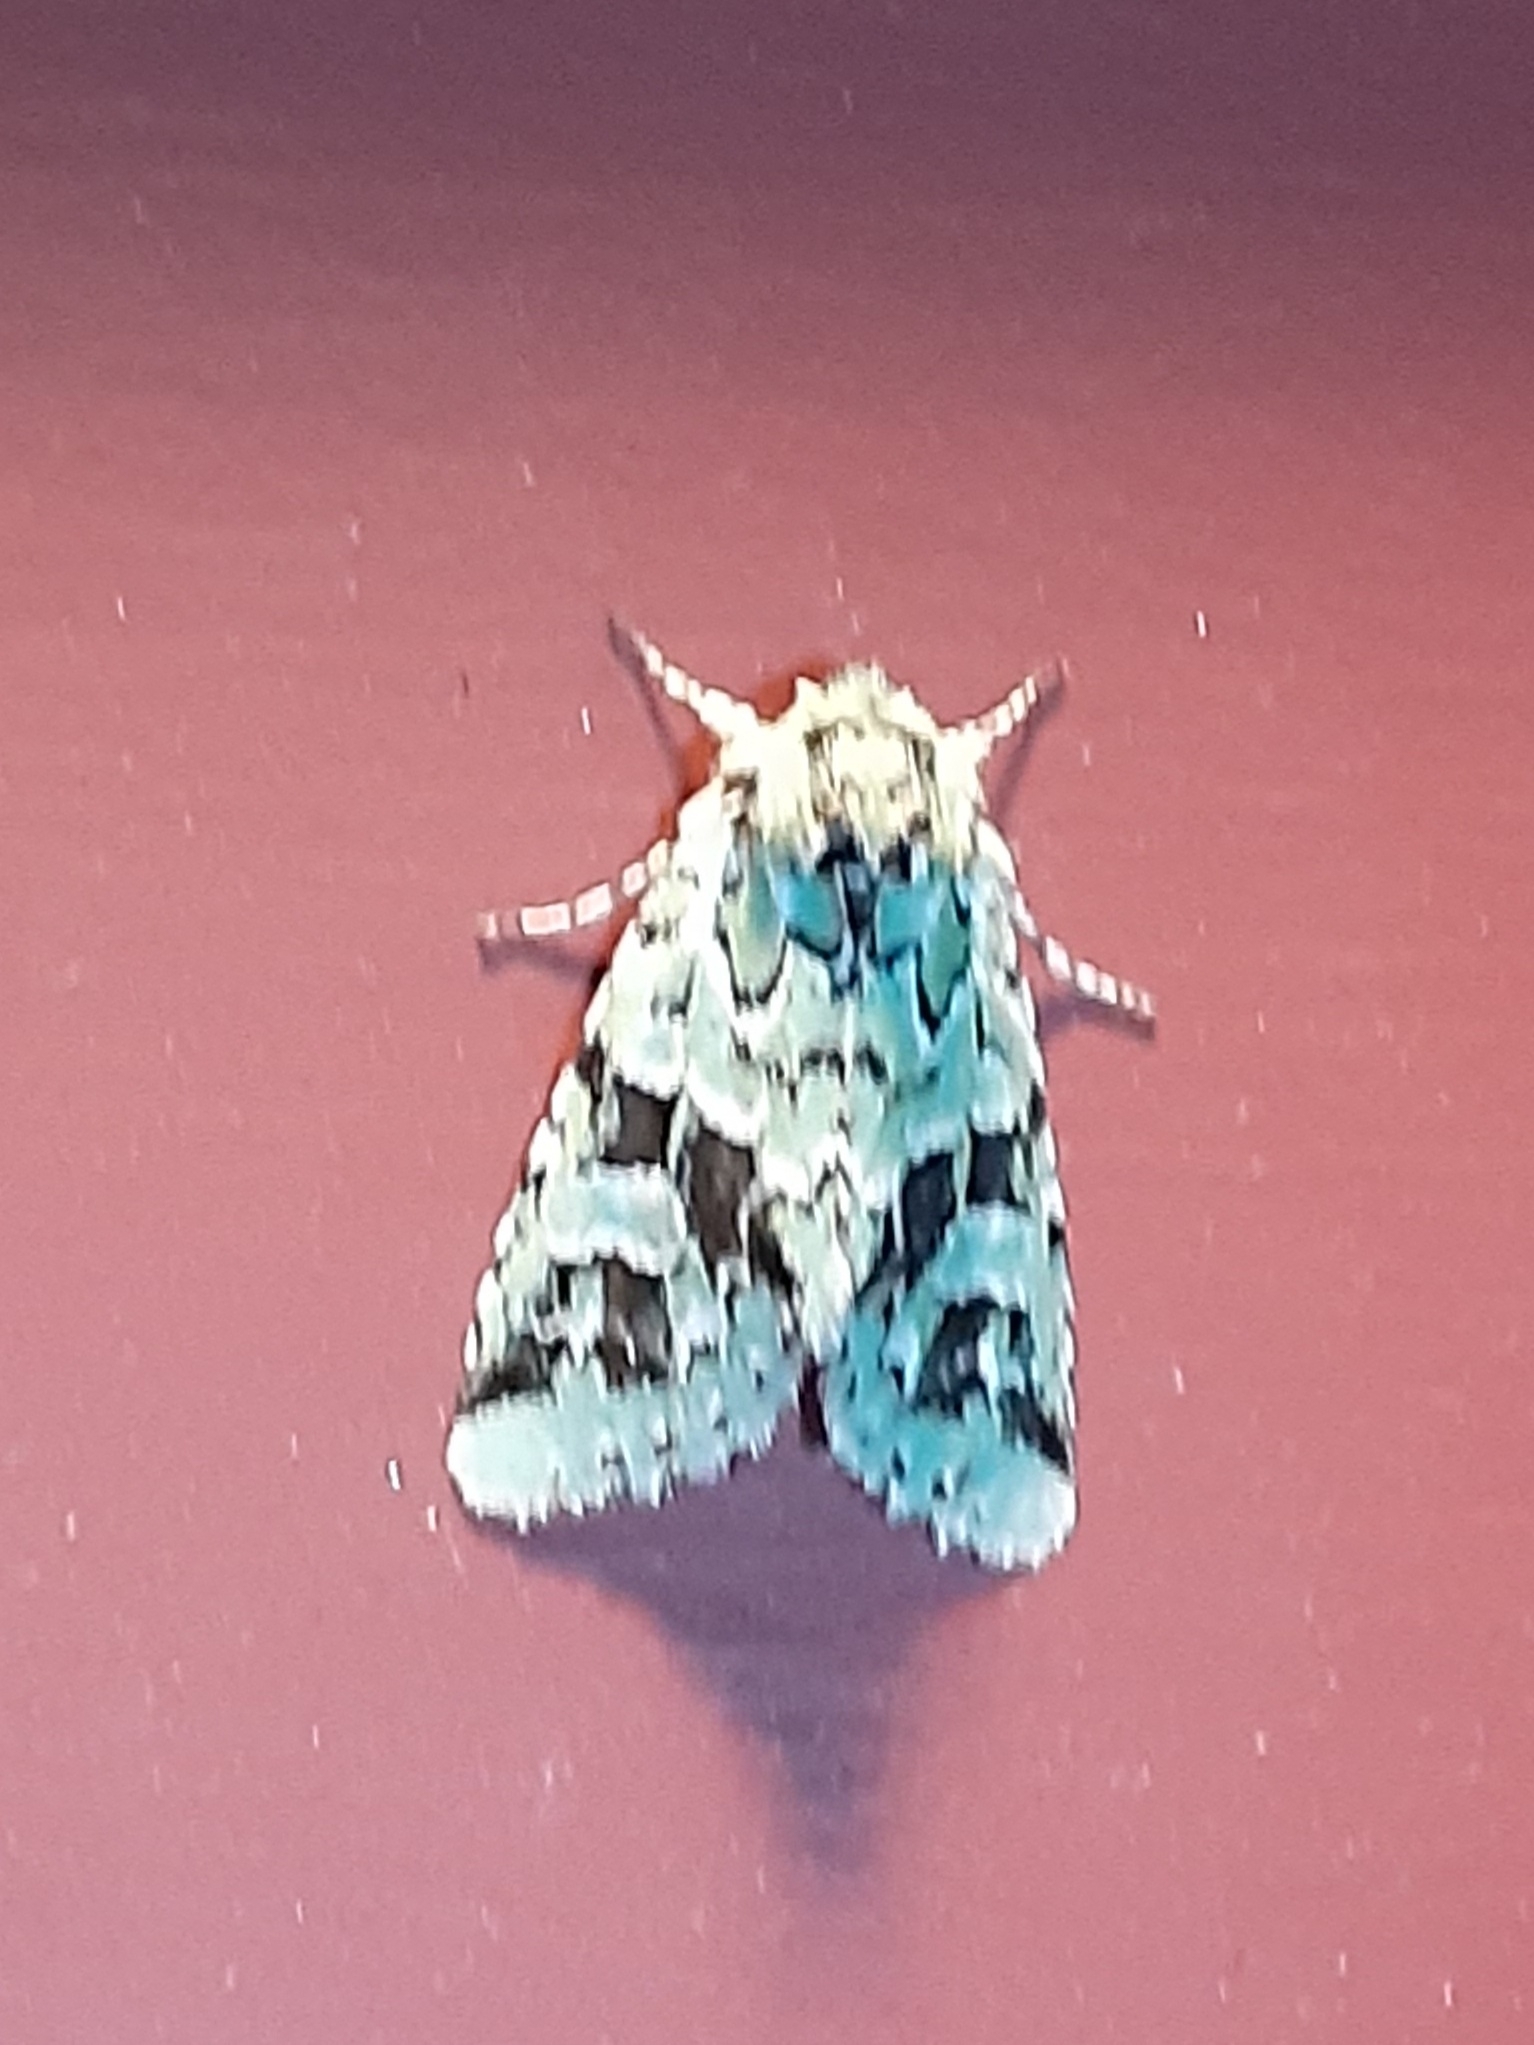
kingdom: Animalia
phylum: Arthropoda
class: Insecta
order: Lepidoptera
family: Noctuidae
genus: Feralia
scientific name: Feralia comstocki
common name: Comstock's sallow
